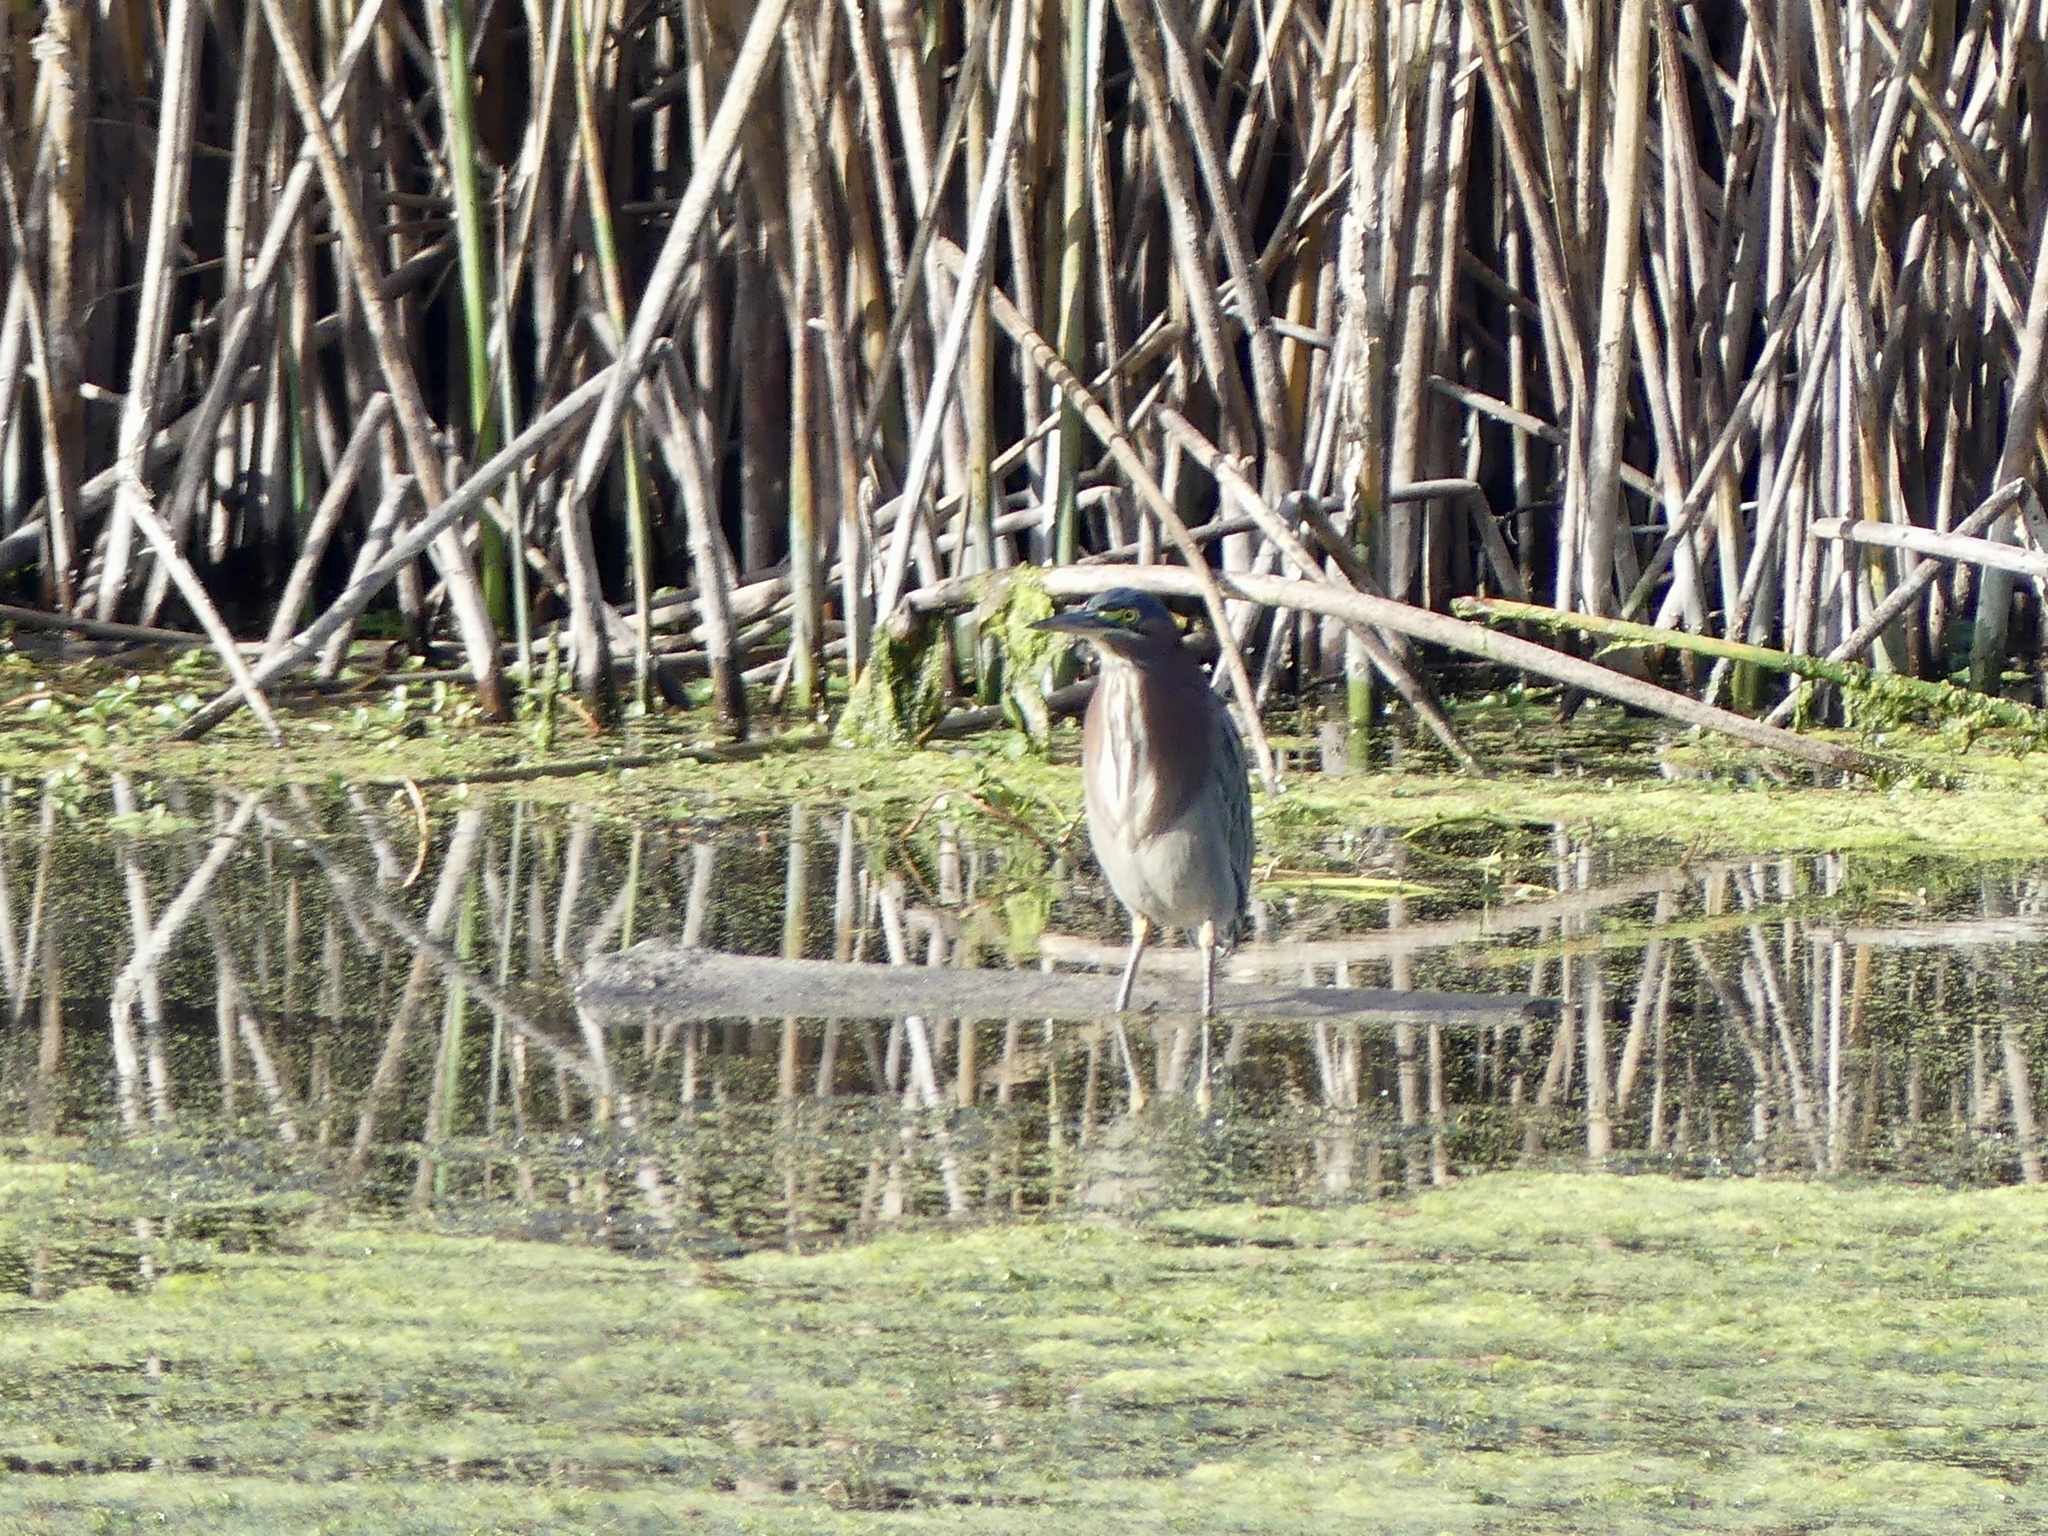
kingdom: Animalia
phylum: Chordata
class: Aves
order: Pelecaniformes
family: Ardeidae
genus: Butorides
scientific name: Butorides virescens
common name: Green heron
